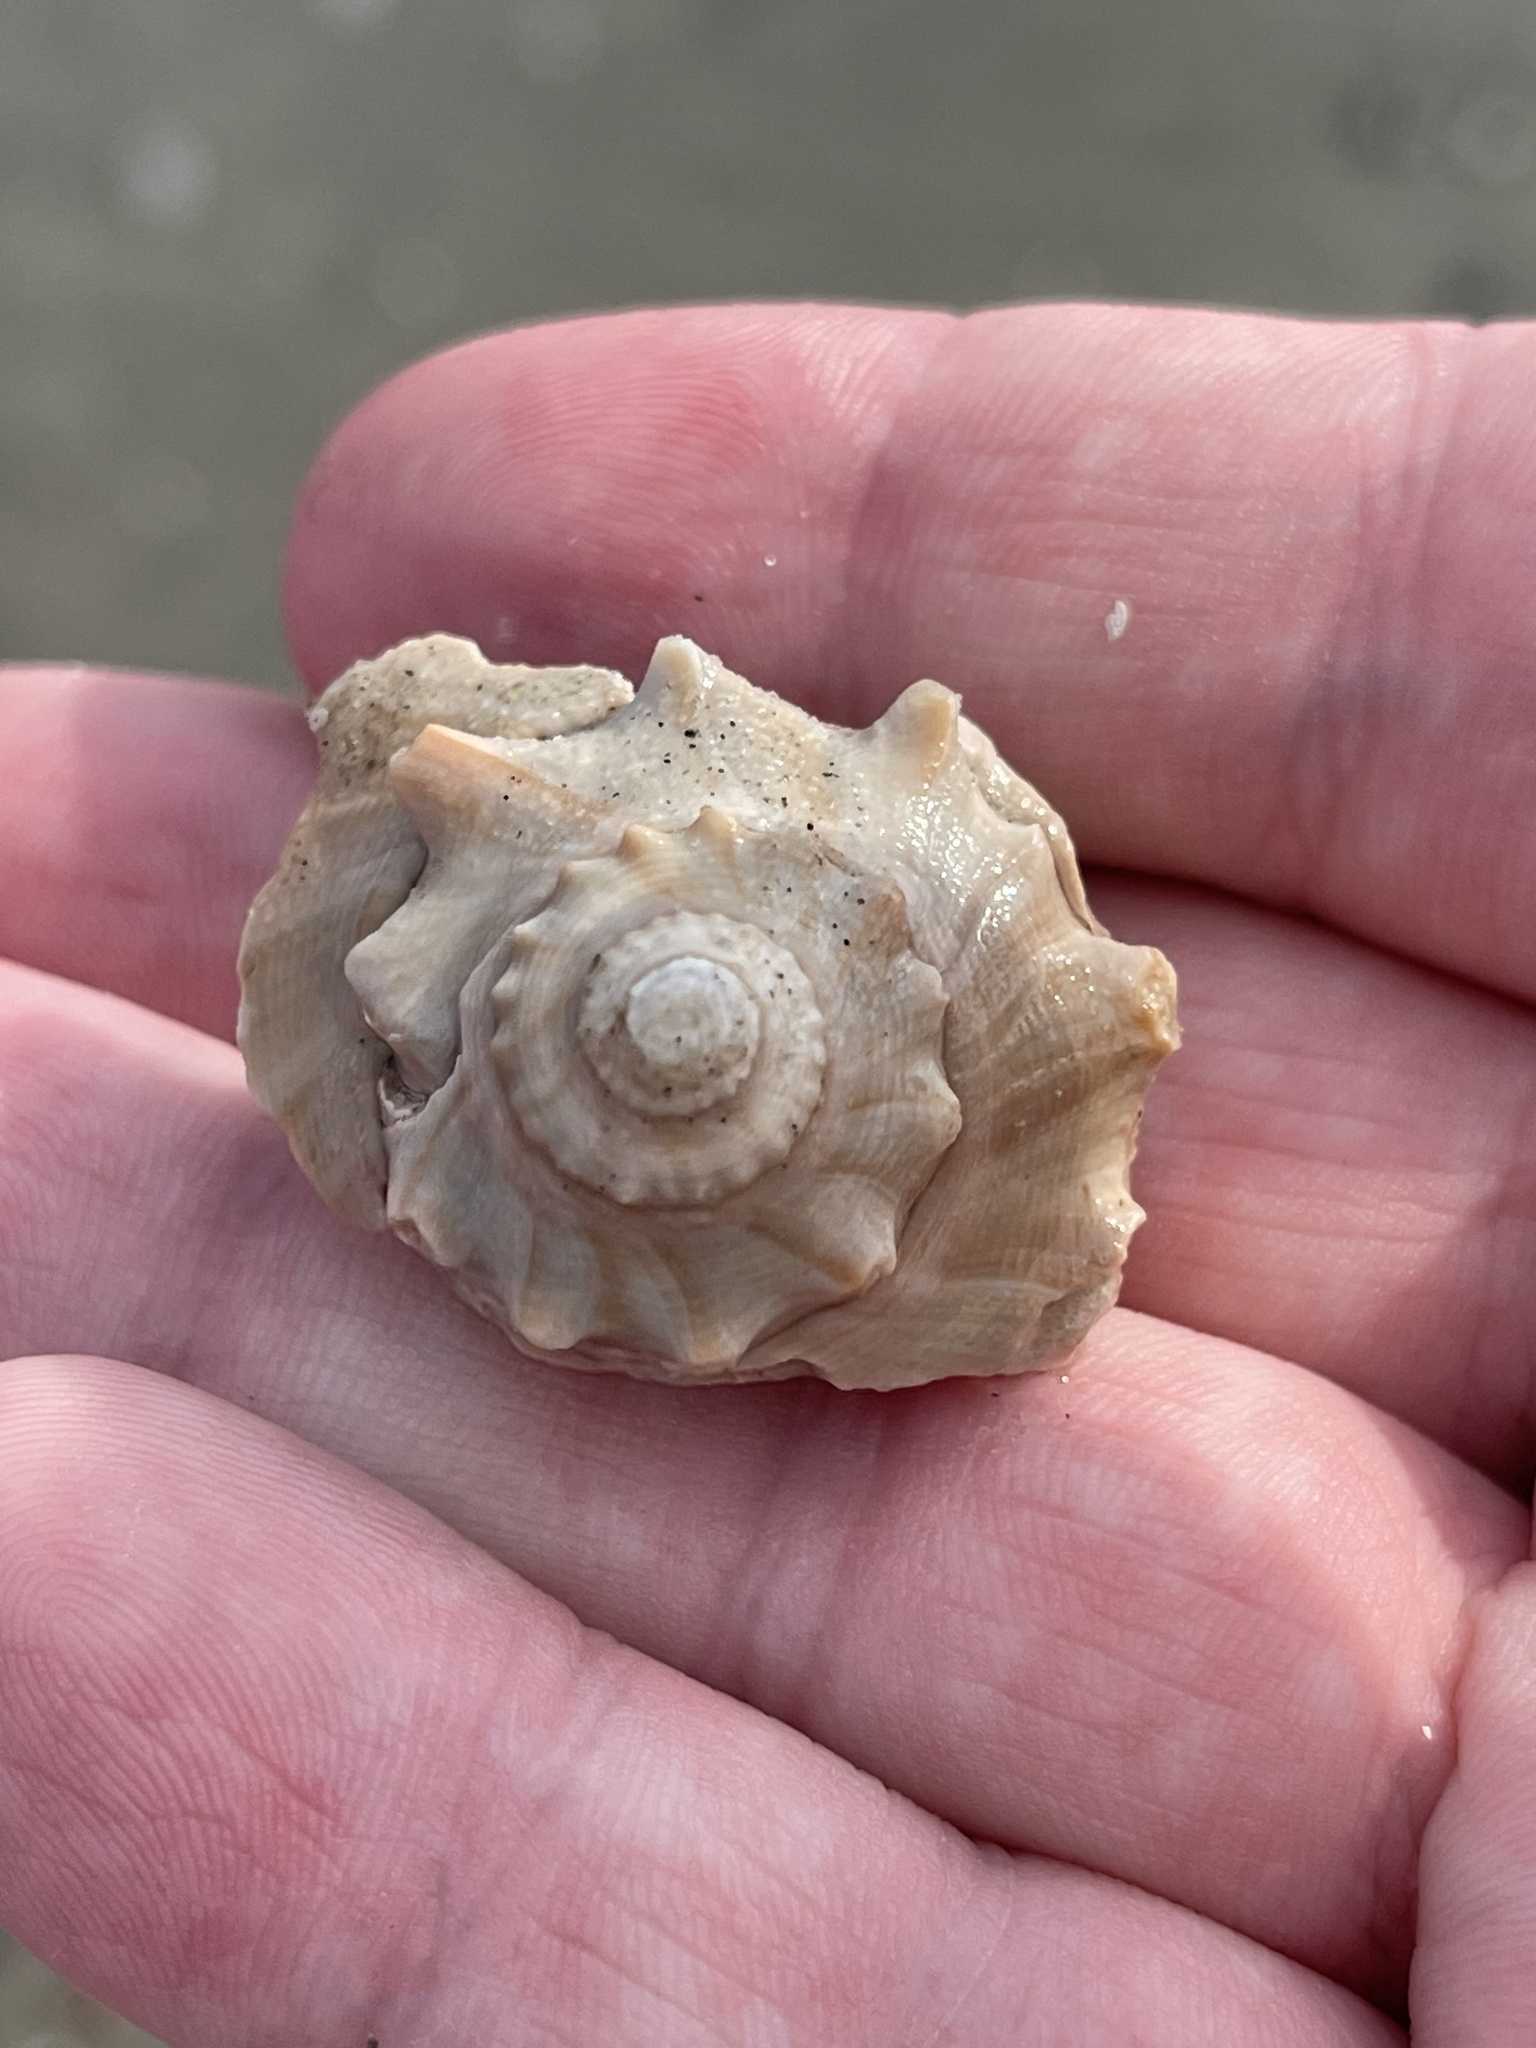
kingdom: Animalia
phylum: Mollusca
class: Gastropoda
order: Neogastropoda
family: Busyconidae
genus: Busycon
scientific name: Busycon carica
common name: Knobbed whelk
